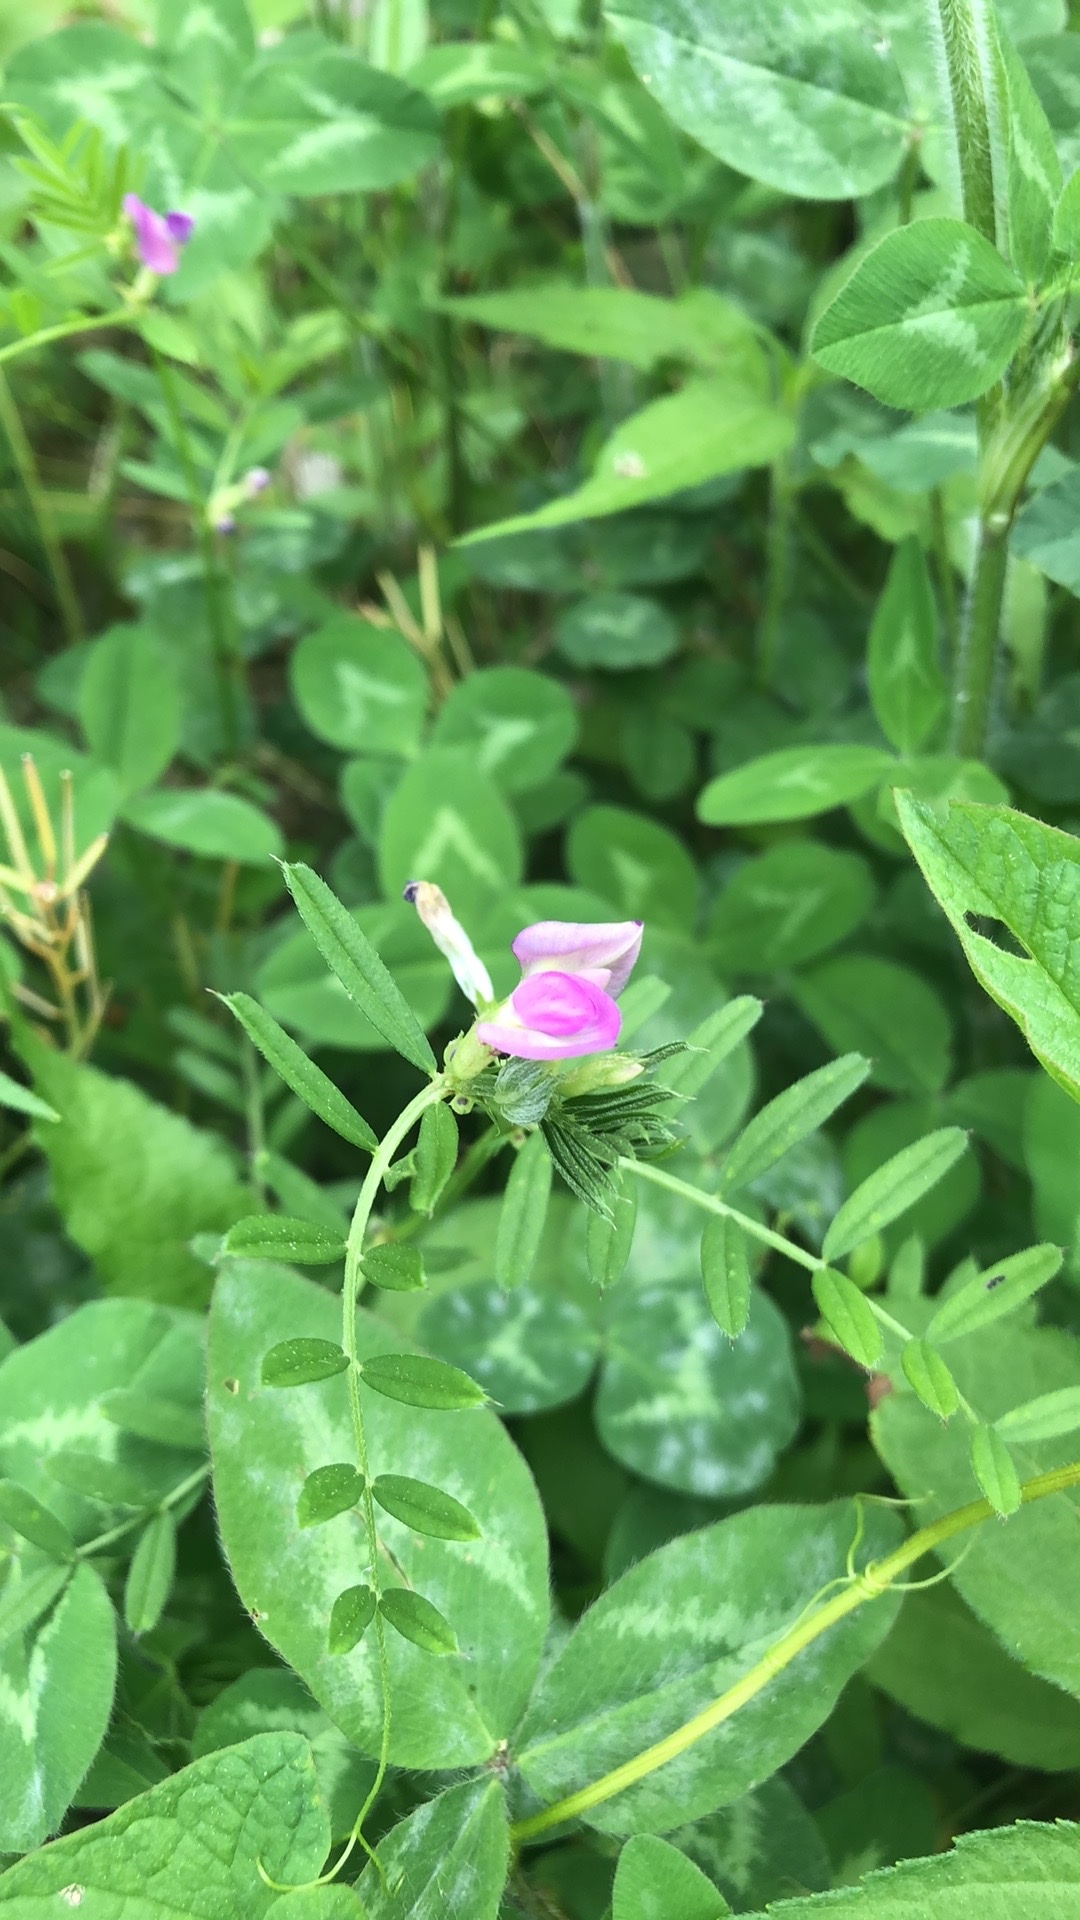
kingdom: Plantae
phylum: Tracheophyta
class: Magnoliopsida
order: Fabales
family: Fabaceae
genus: Vicia
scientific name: Vicia sativa
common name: Garden vetch
